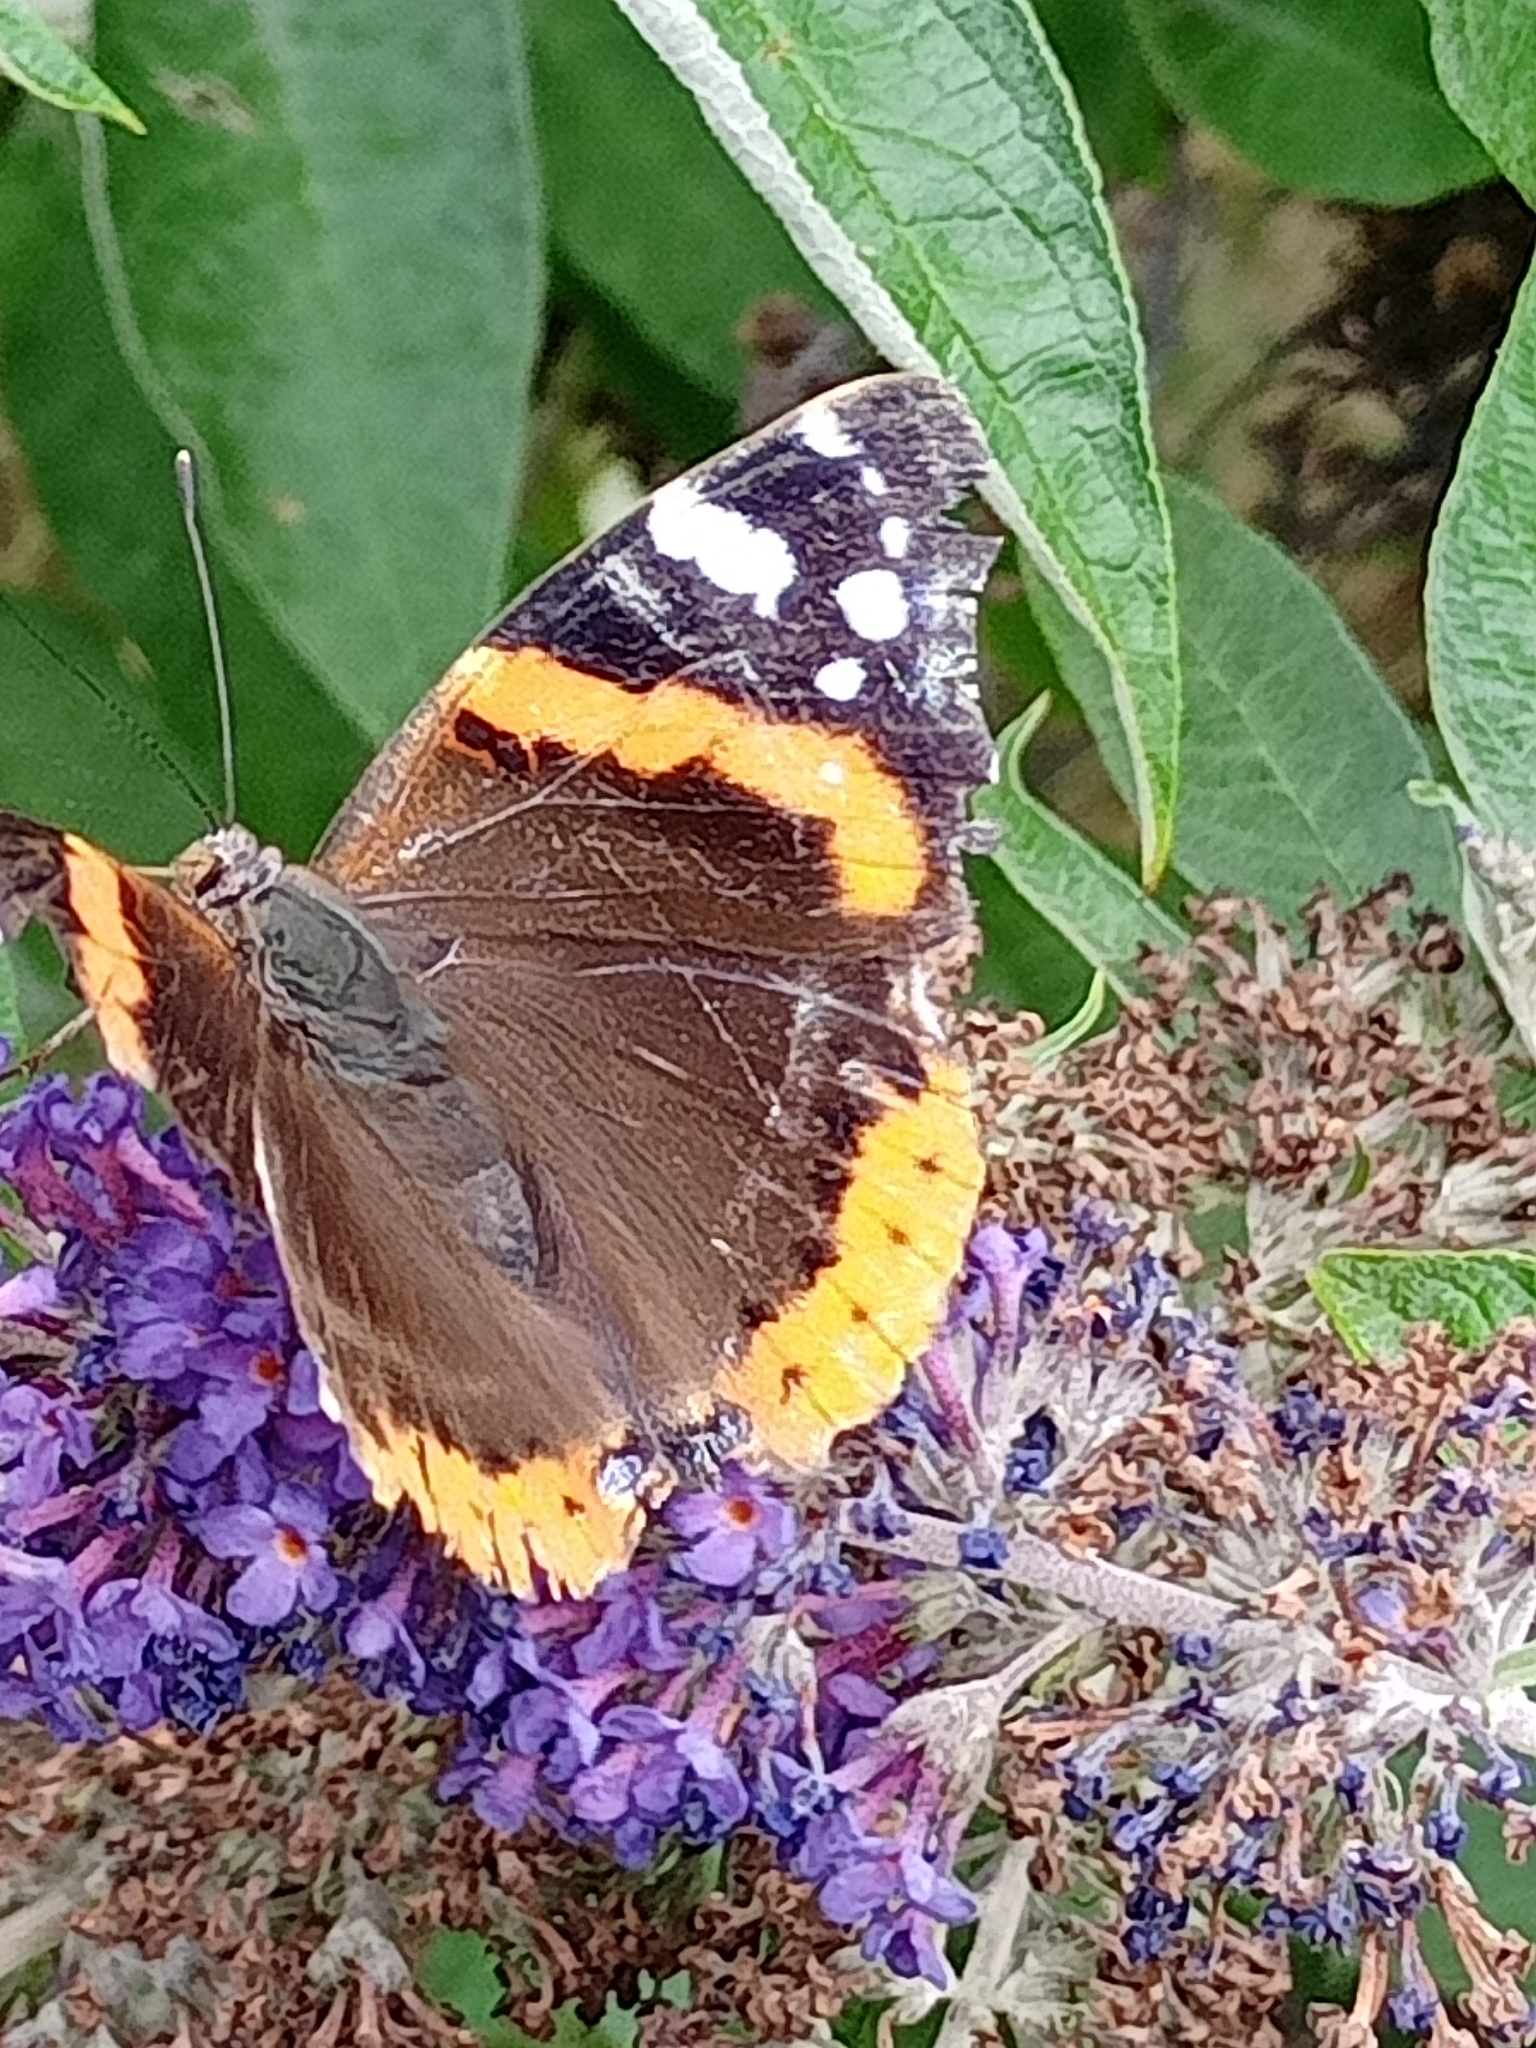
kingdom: Animalia
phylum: Arthropoda
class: Insecta
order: Lepidoptera
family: Nymphalidae
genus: Vanessa
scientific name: Vanessa atalanta
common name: Red admiral
